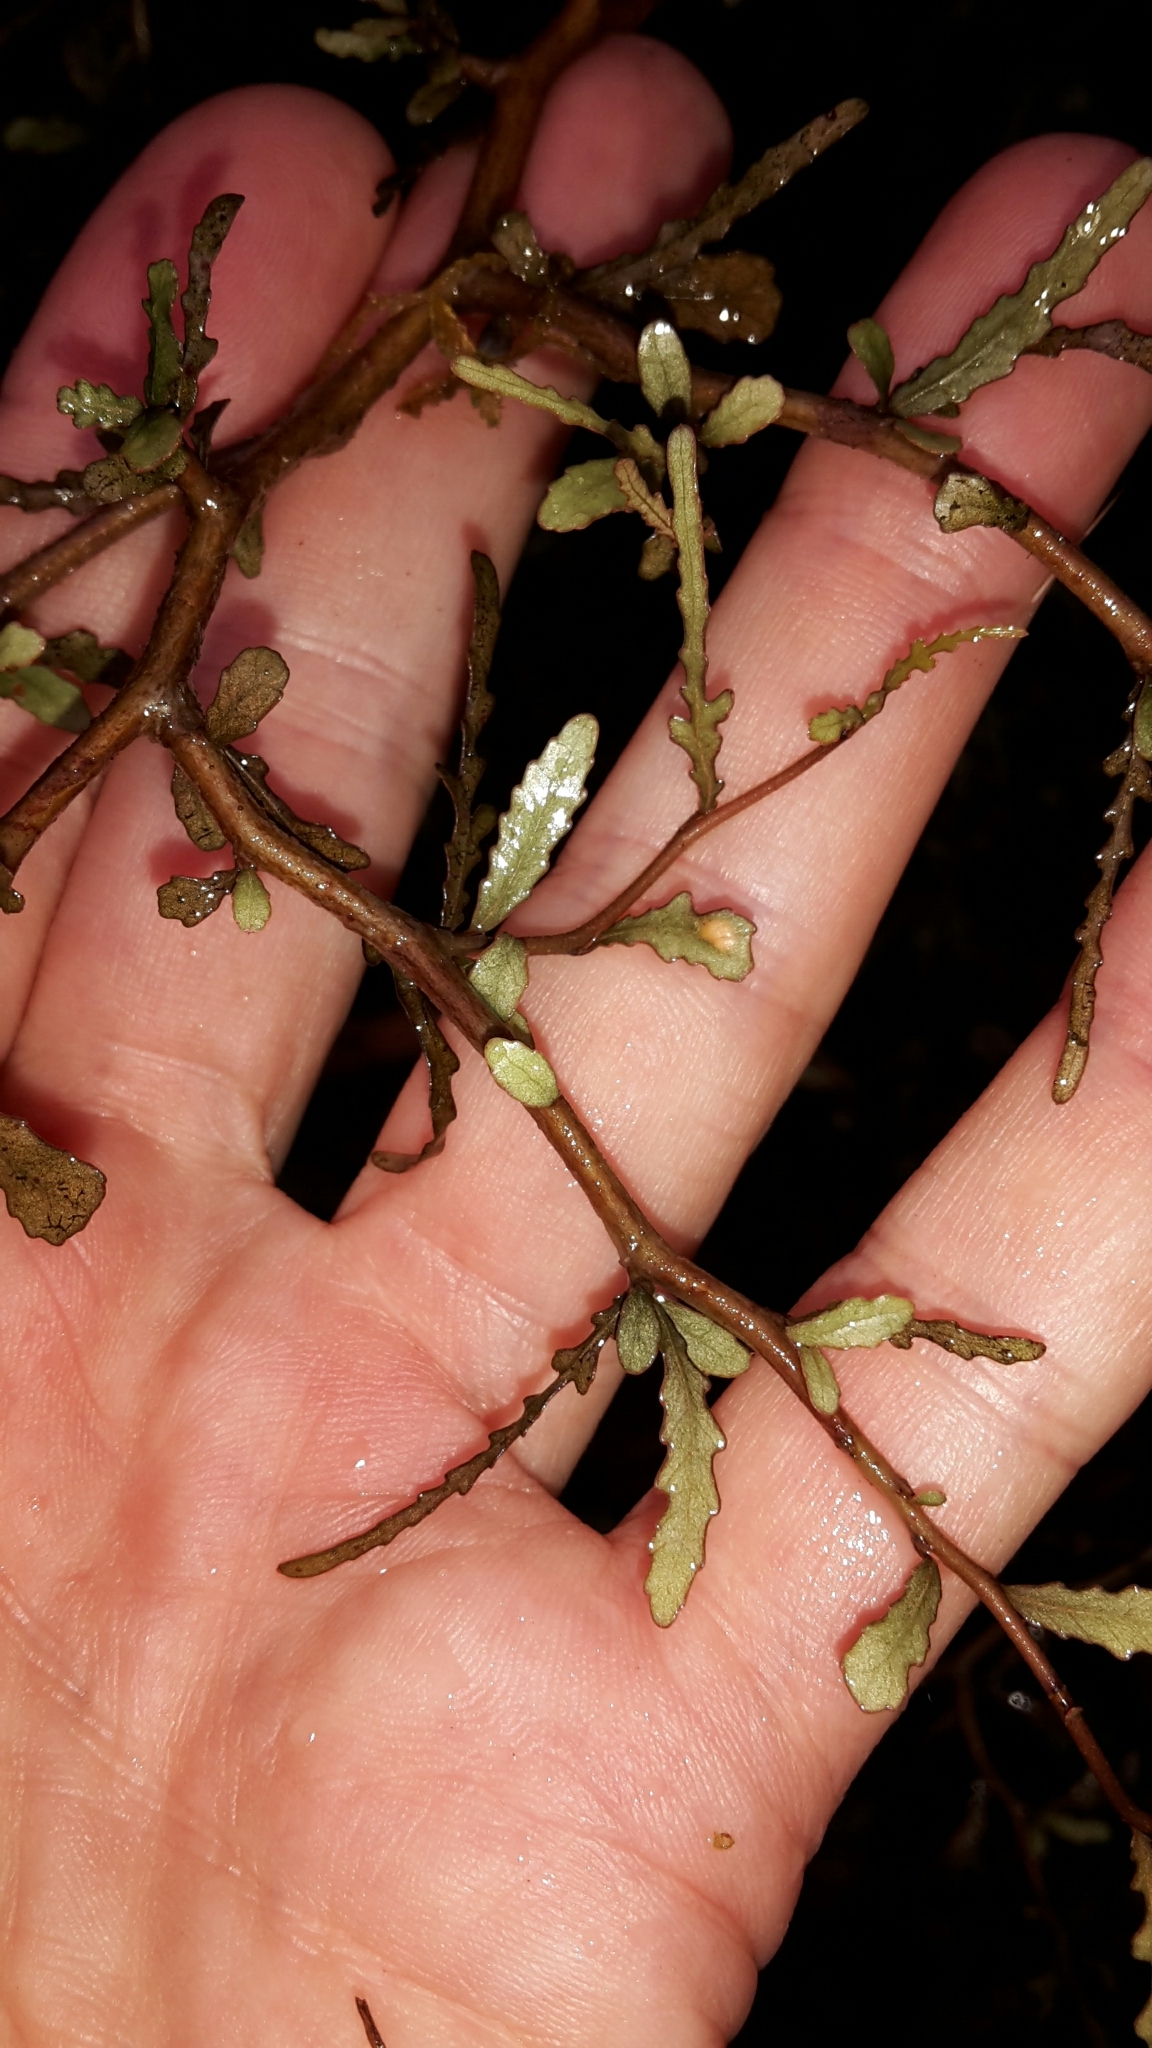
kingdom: Plantae
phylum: Tracheophyta
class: Magnoliopsida
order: Oxalidales
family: Elaeocarpaceae
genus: Elaeocarpus
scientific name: Elaeocarpus hookerianus
